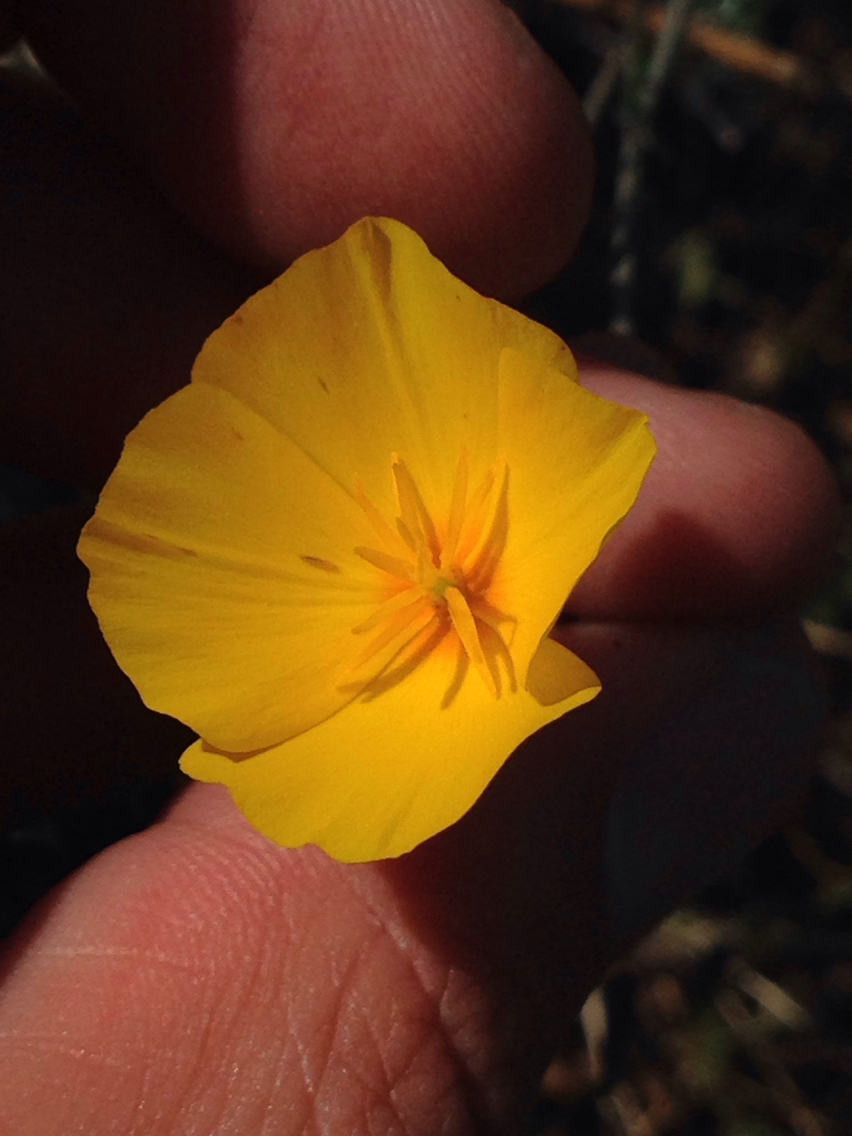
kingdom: Plantae
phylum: Tracheophyta
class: Magnoliopsida
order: Ranunculales
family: Papaveraceae
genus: Eschscholzia
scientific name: Eschscholzia lobbii
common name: Frying-pans
